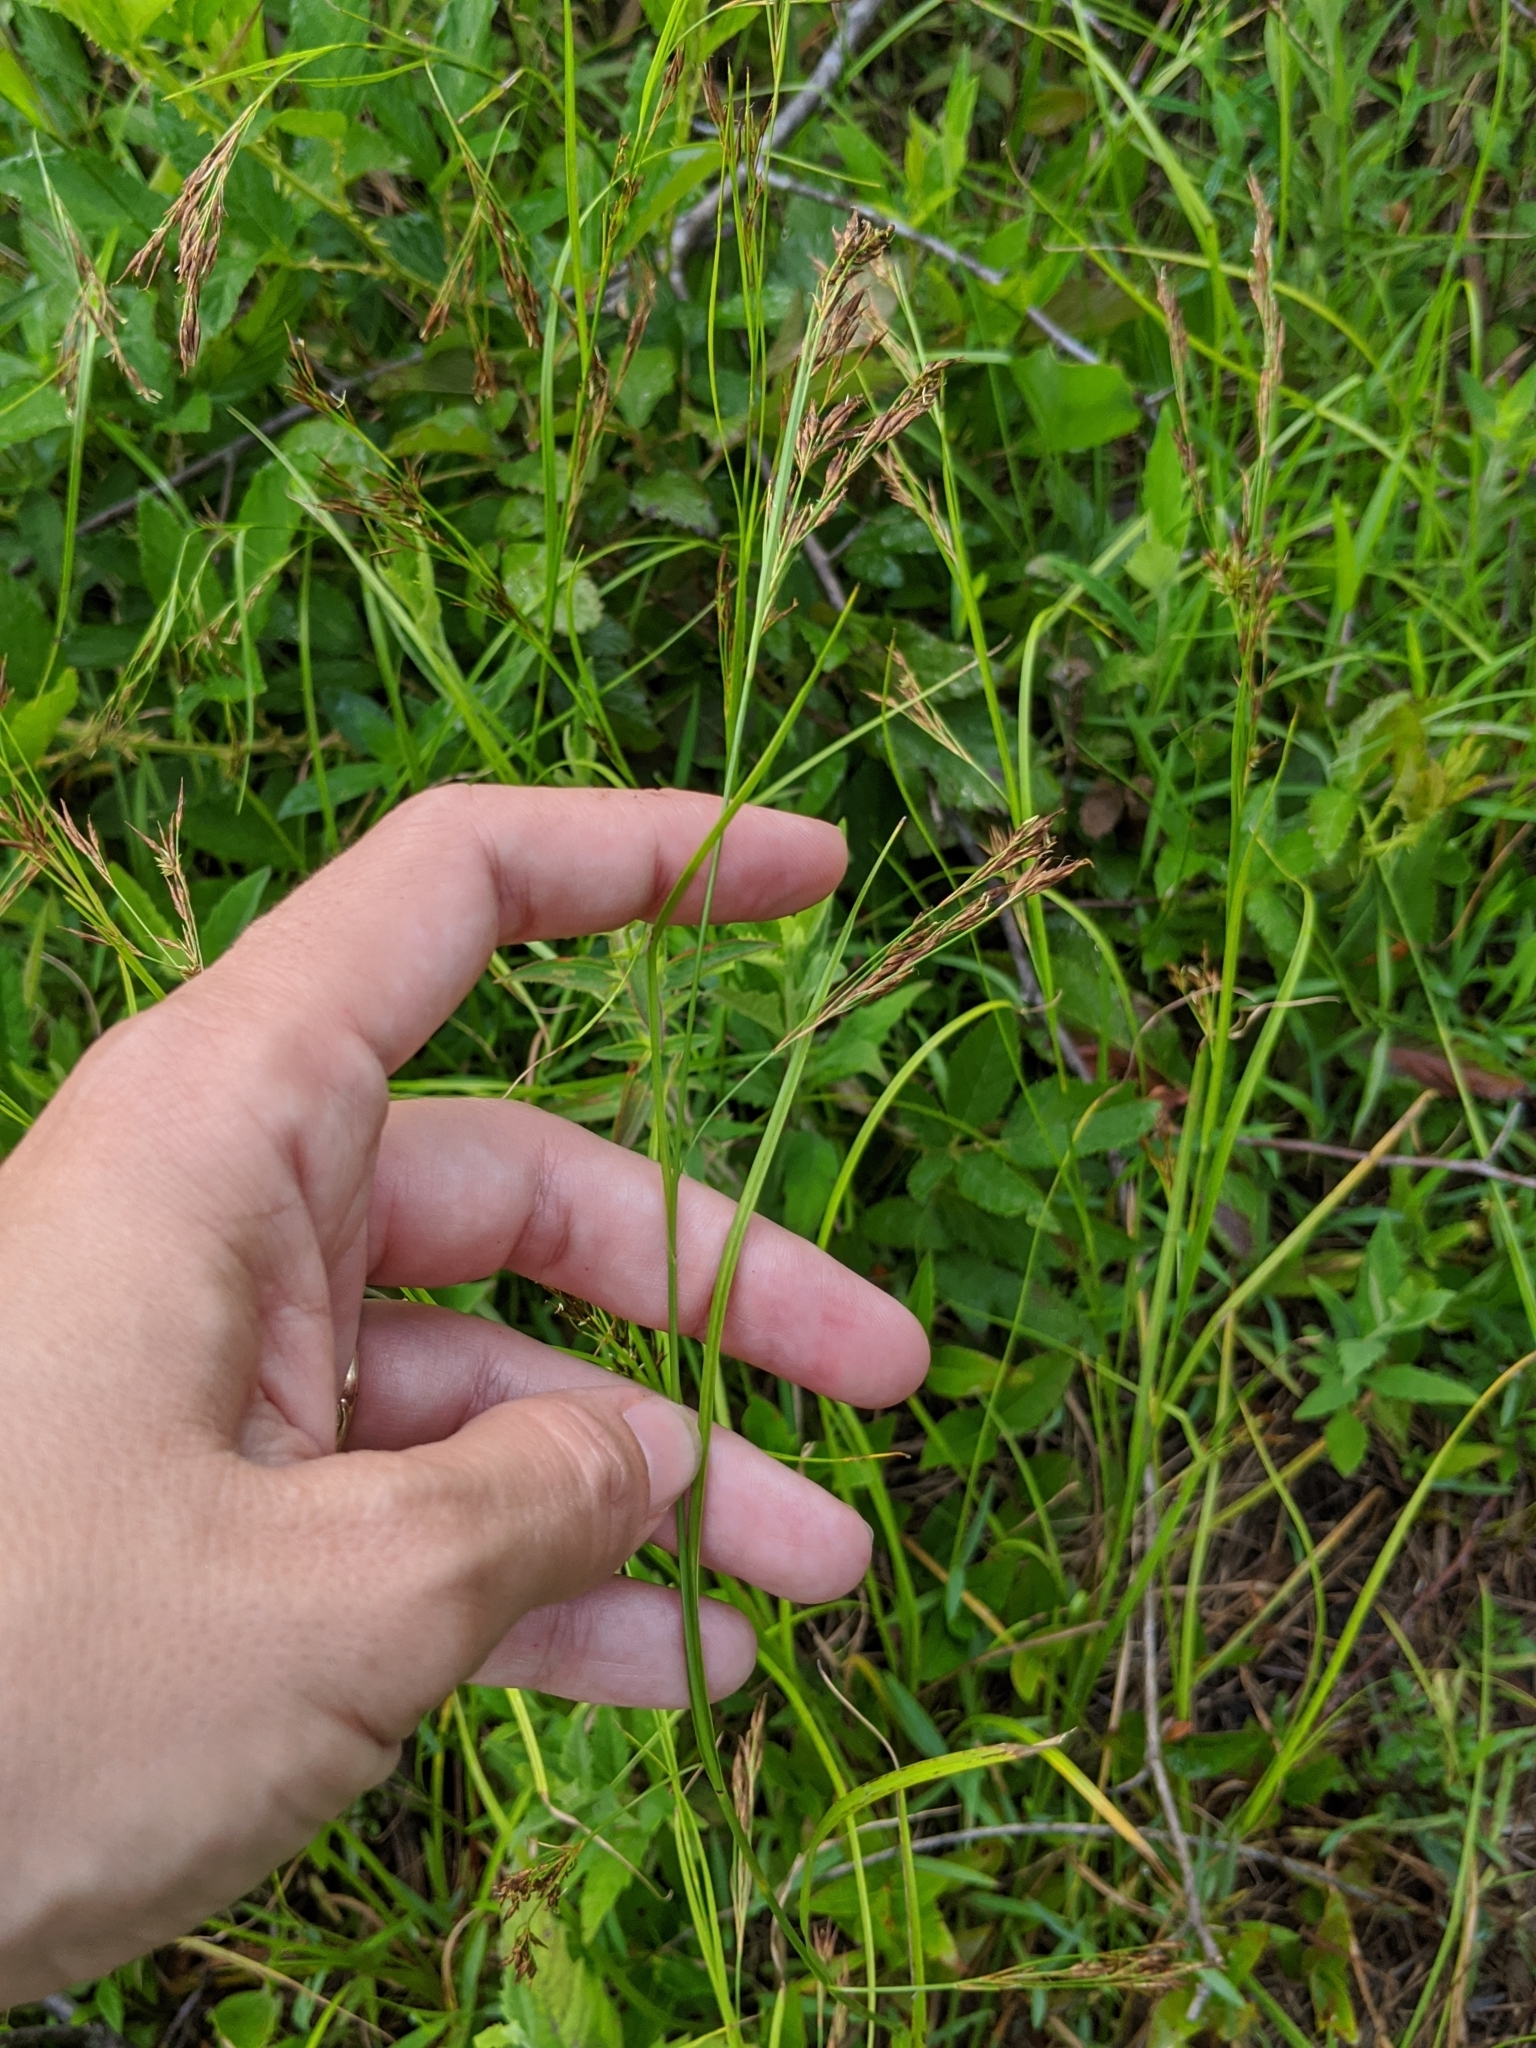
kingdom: Plantae
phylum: Tracheophyta
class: Liliopsida
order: Poales
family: Cyperaceae
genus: Rhynchospora
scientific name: Rhynchospora inexpansa
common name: Nodding beaksedge
